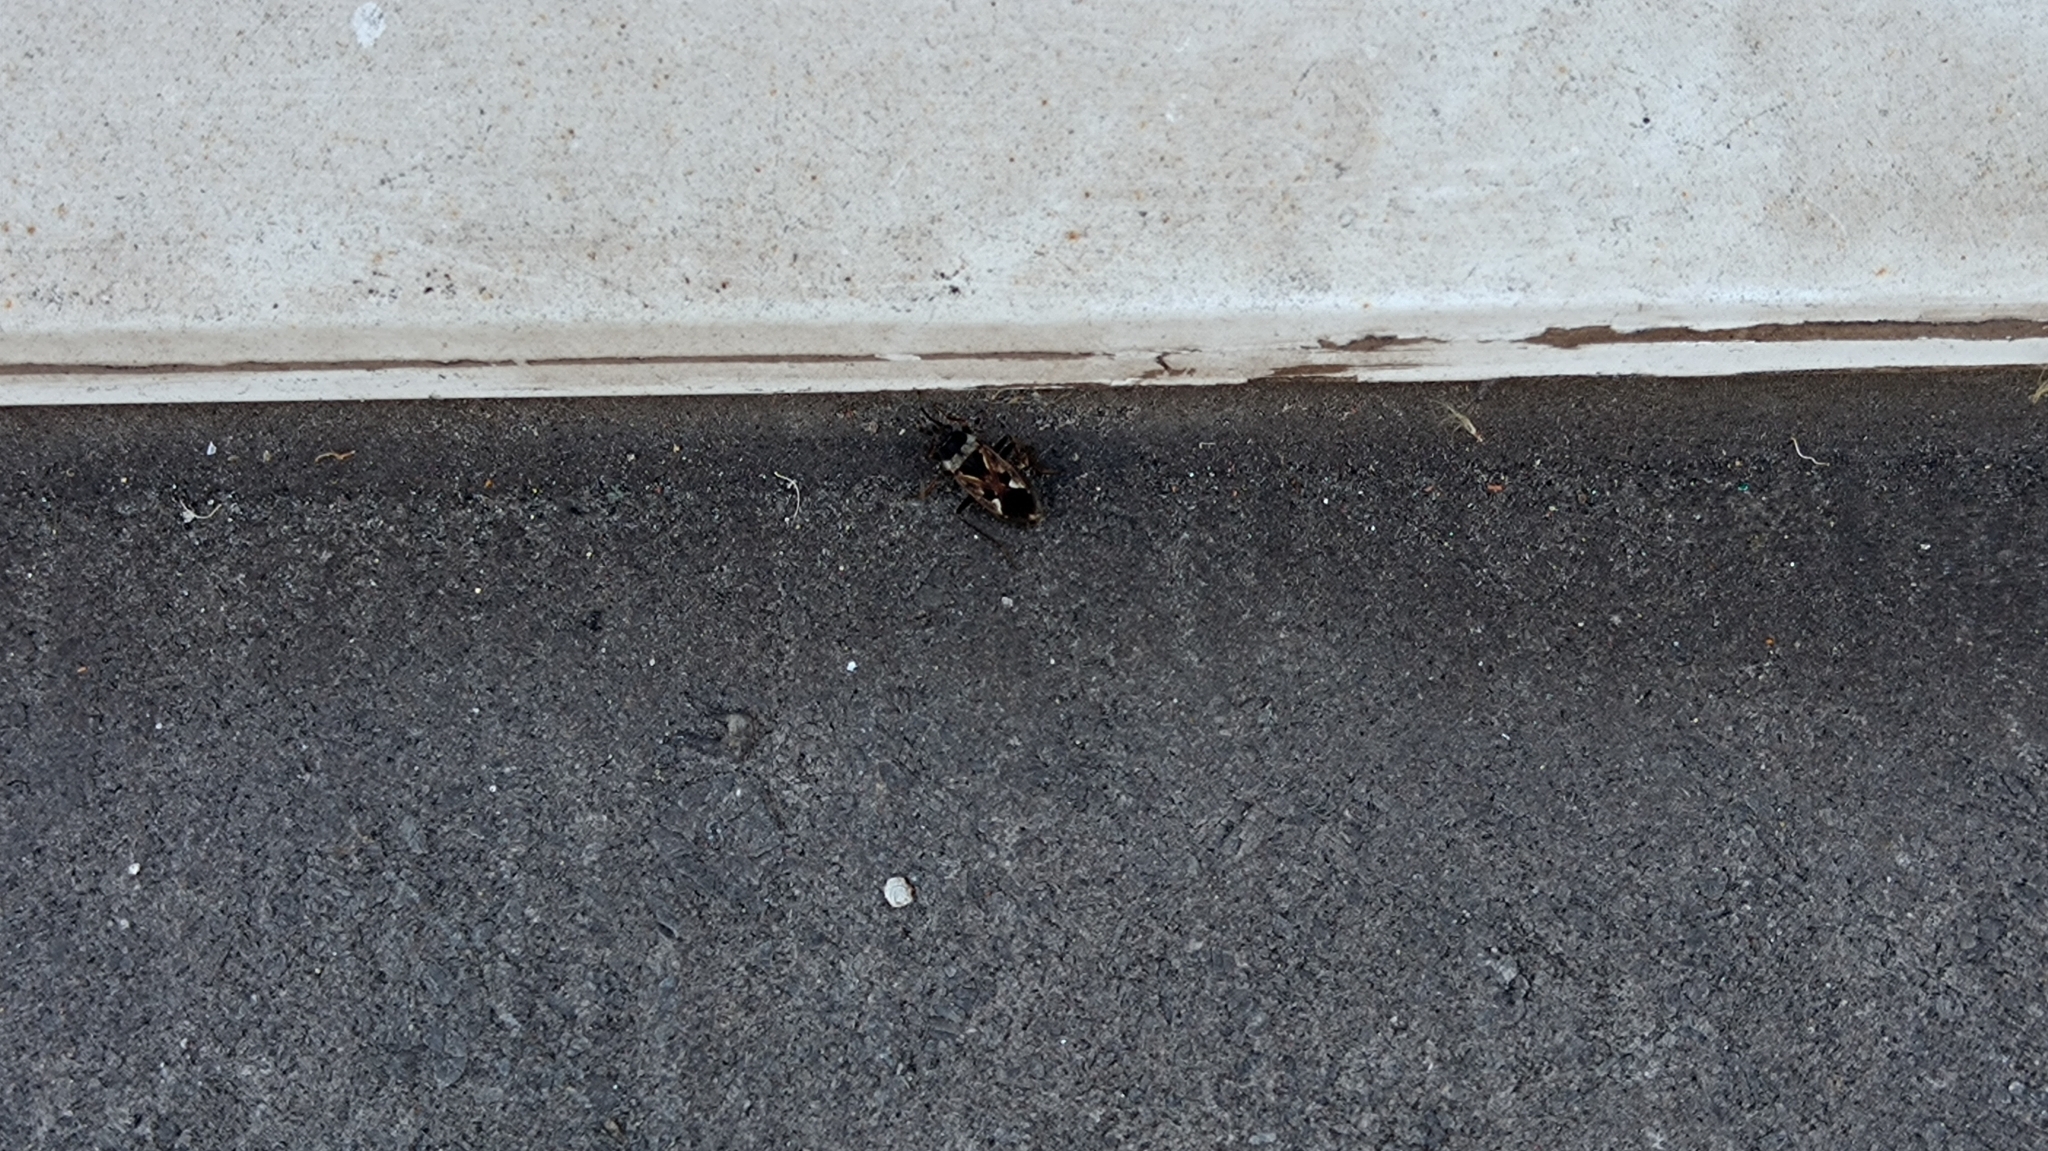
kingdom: Animalia
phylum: Arthropoda
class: Insecta
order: Hemiptera
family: Rhyparochromidae
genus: Rhyparochromus
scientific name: Rhyparochromus vulgaris
